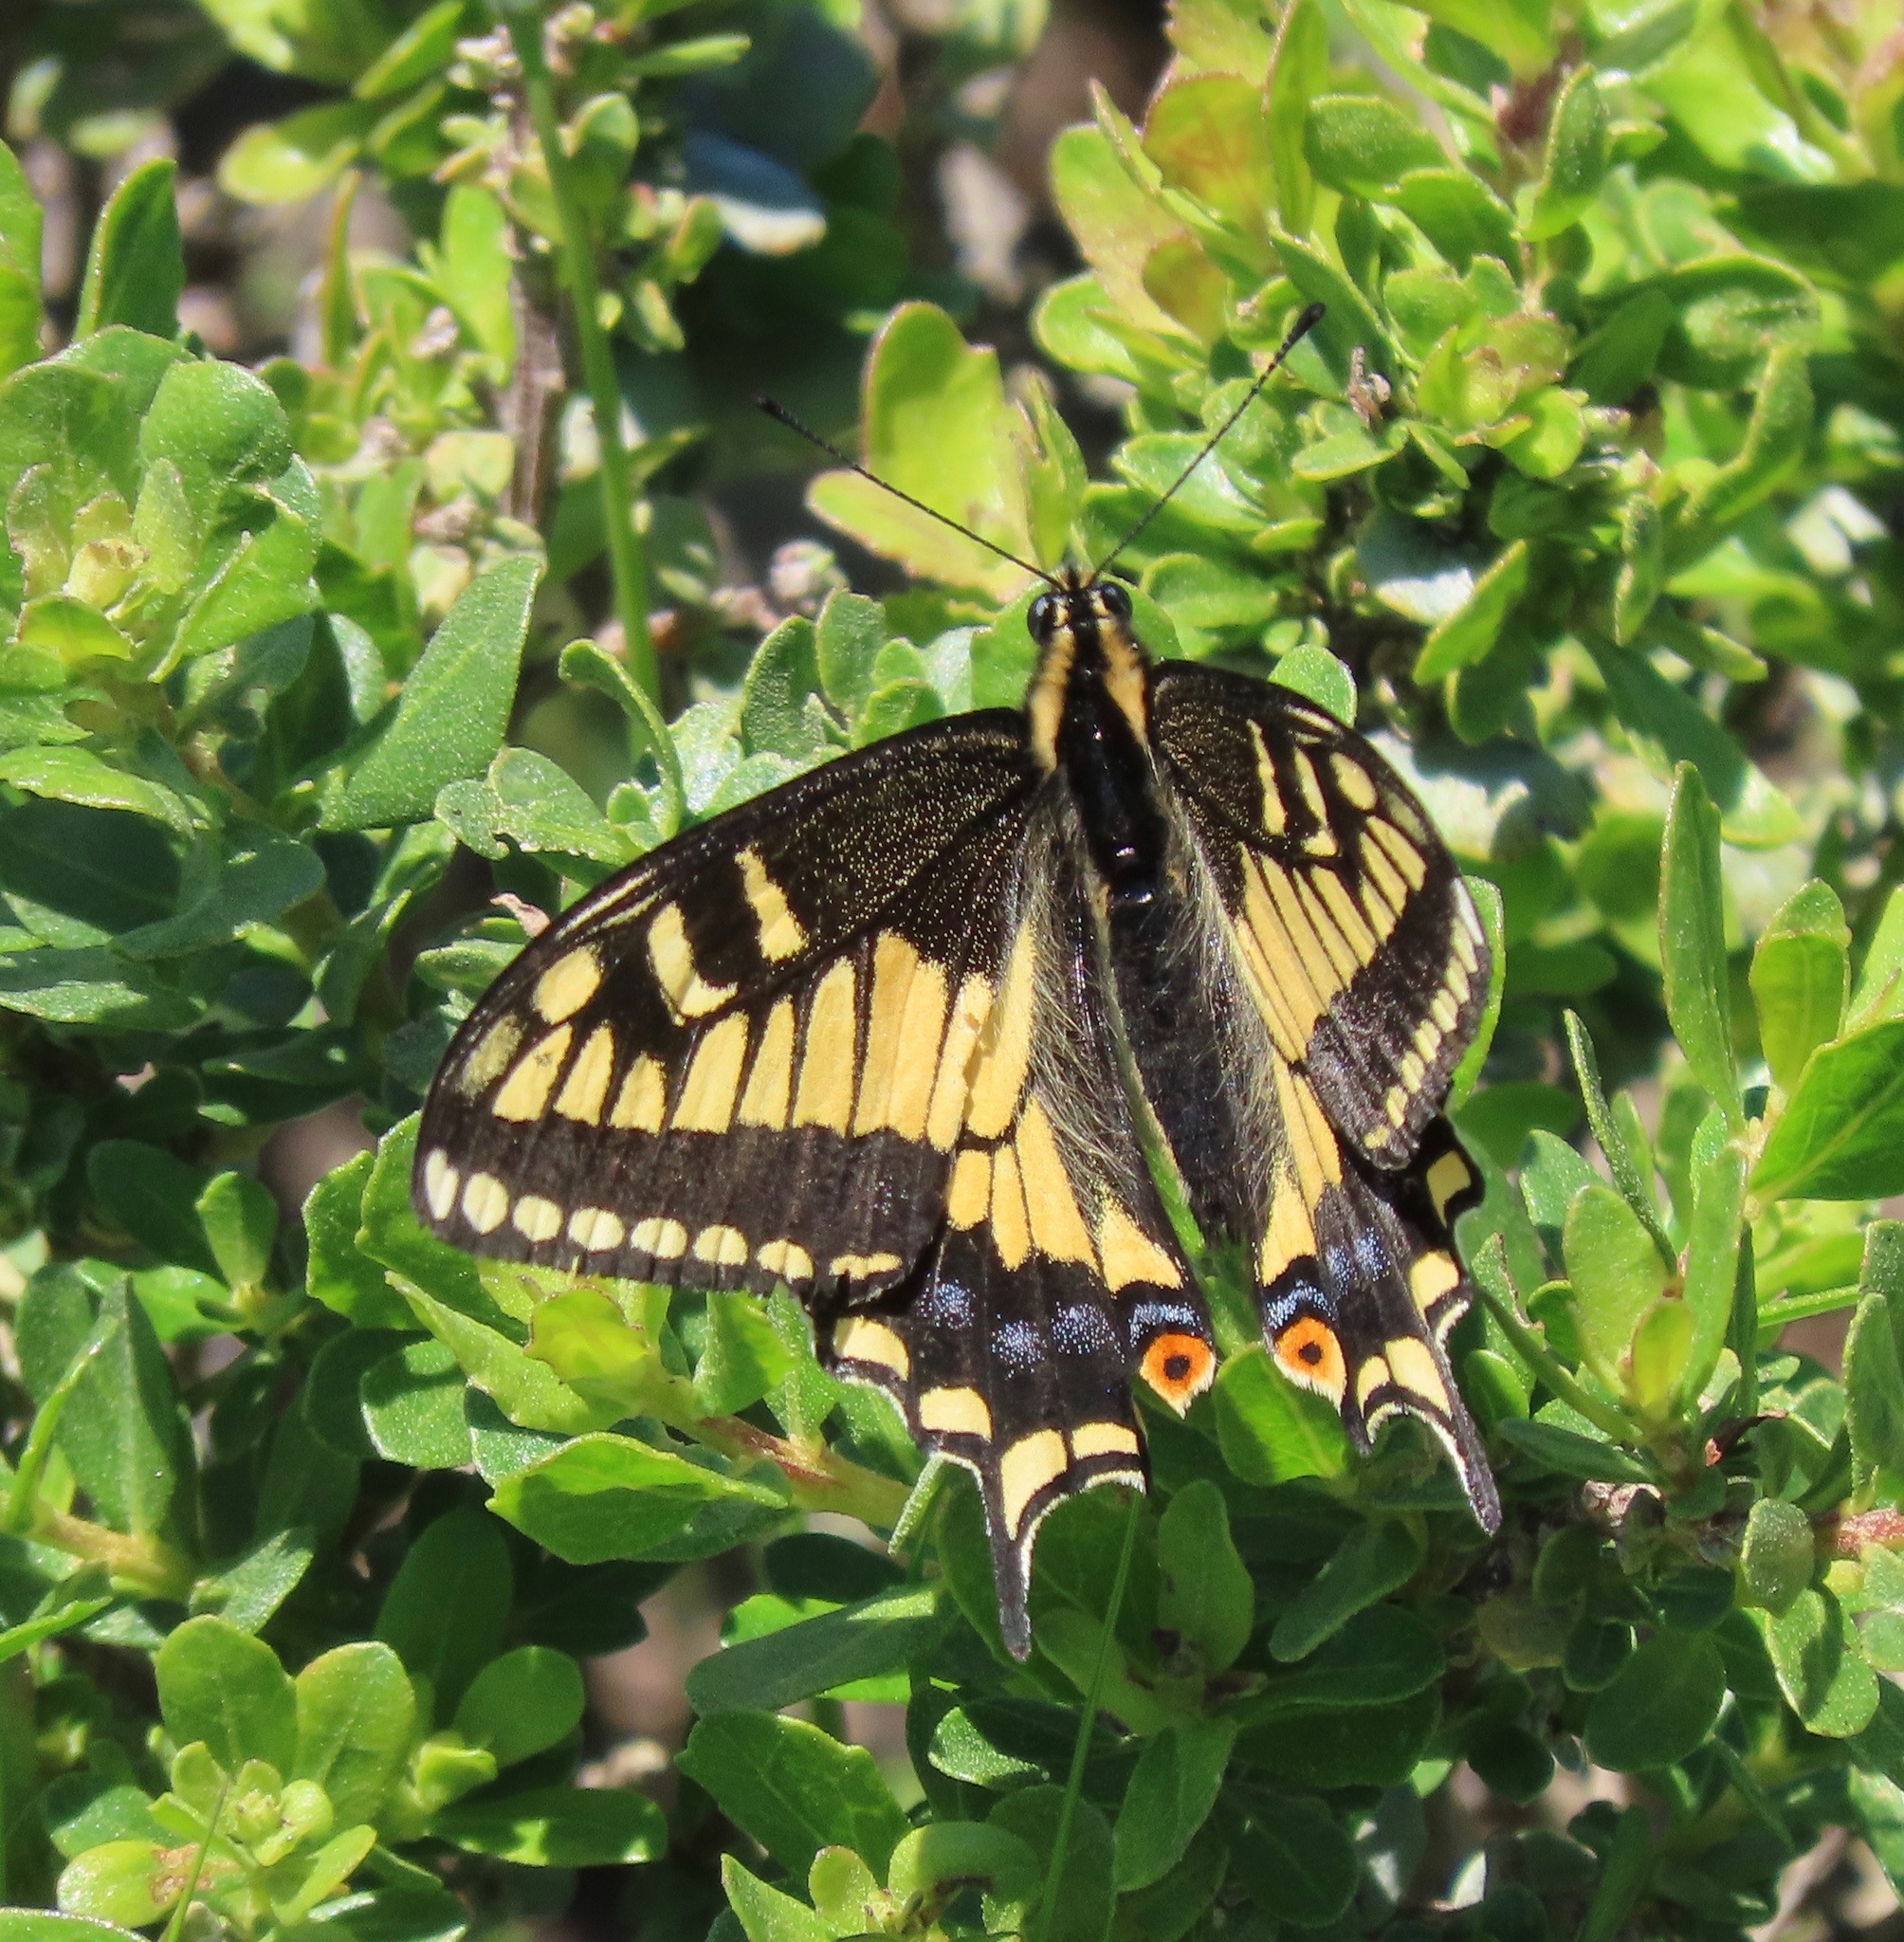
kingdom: Animalia
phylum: Arthropoda
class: Insecta
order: Lepidoptera
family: Papilionidae
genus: Papilio
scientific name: Papilio zelicaon
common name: Anise swallowtail
